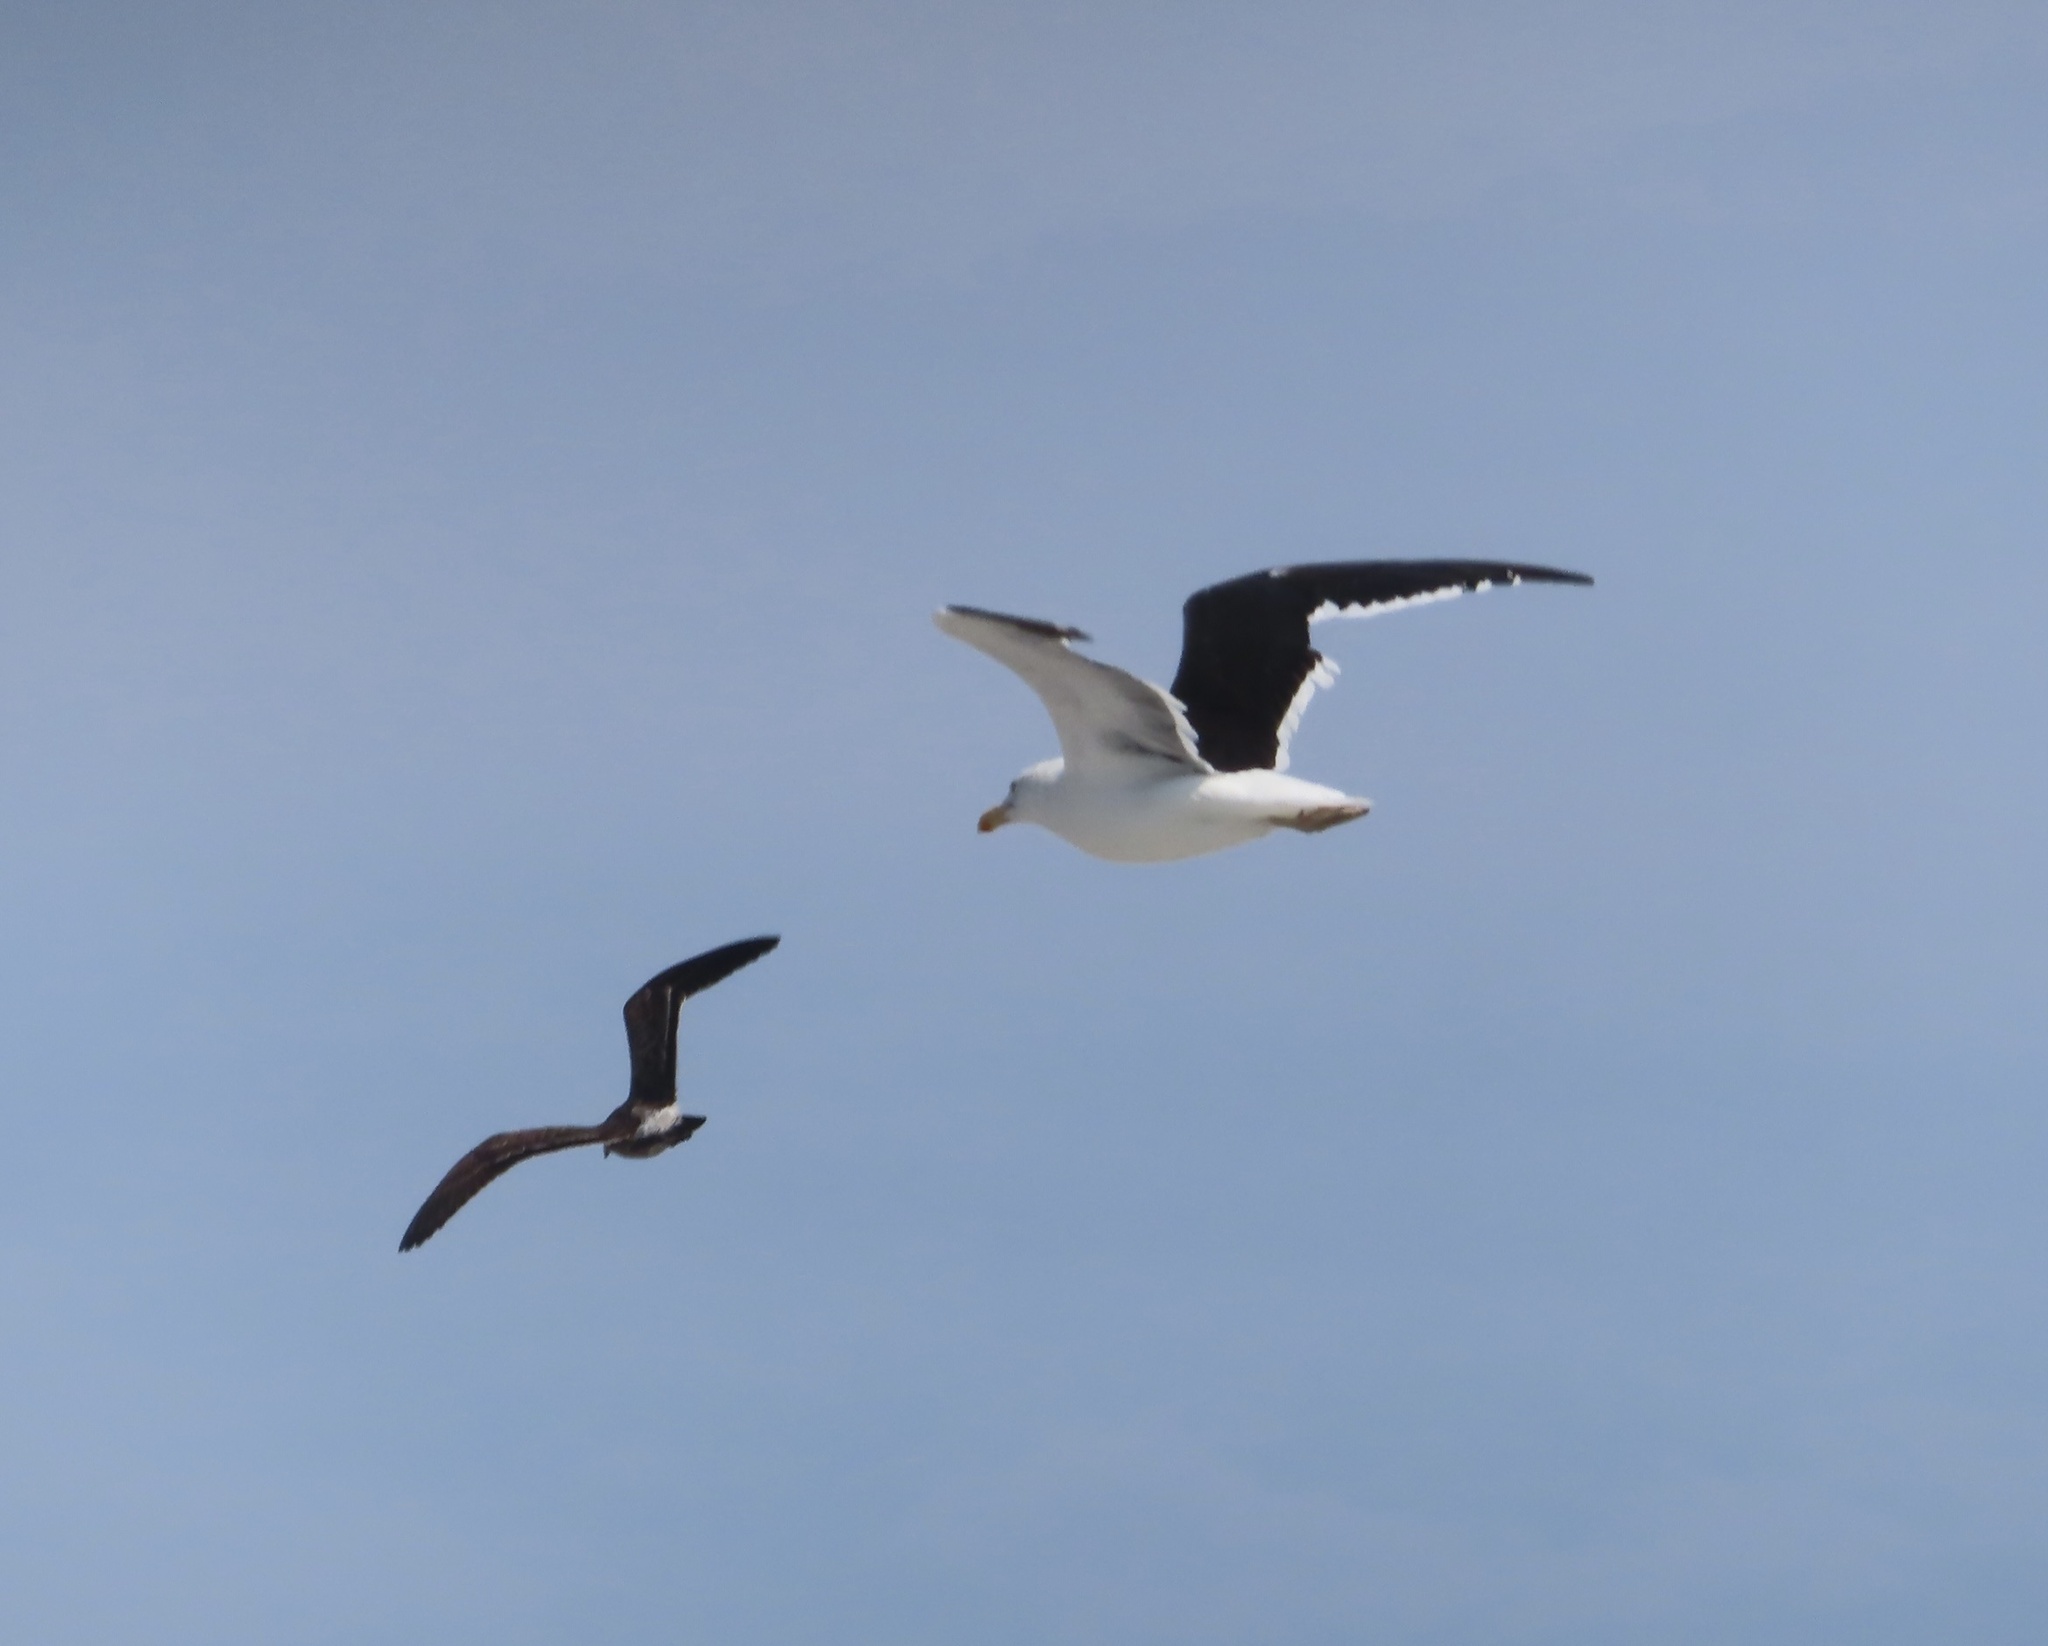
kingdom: Animalia
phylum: Chordata
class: Aves
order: Charadriiformes
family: Laridae
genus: Larus
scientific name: Larus dominicanus
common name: Kelp gull
